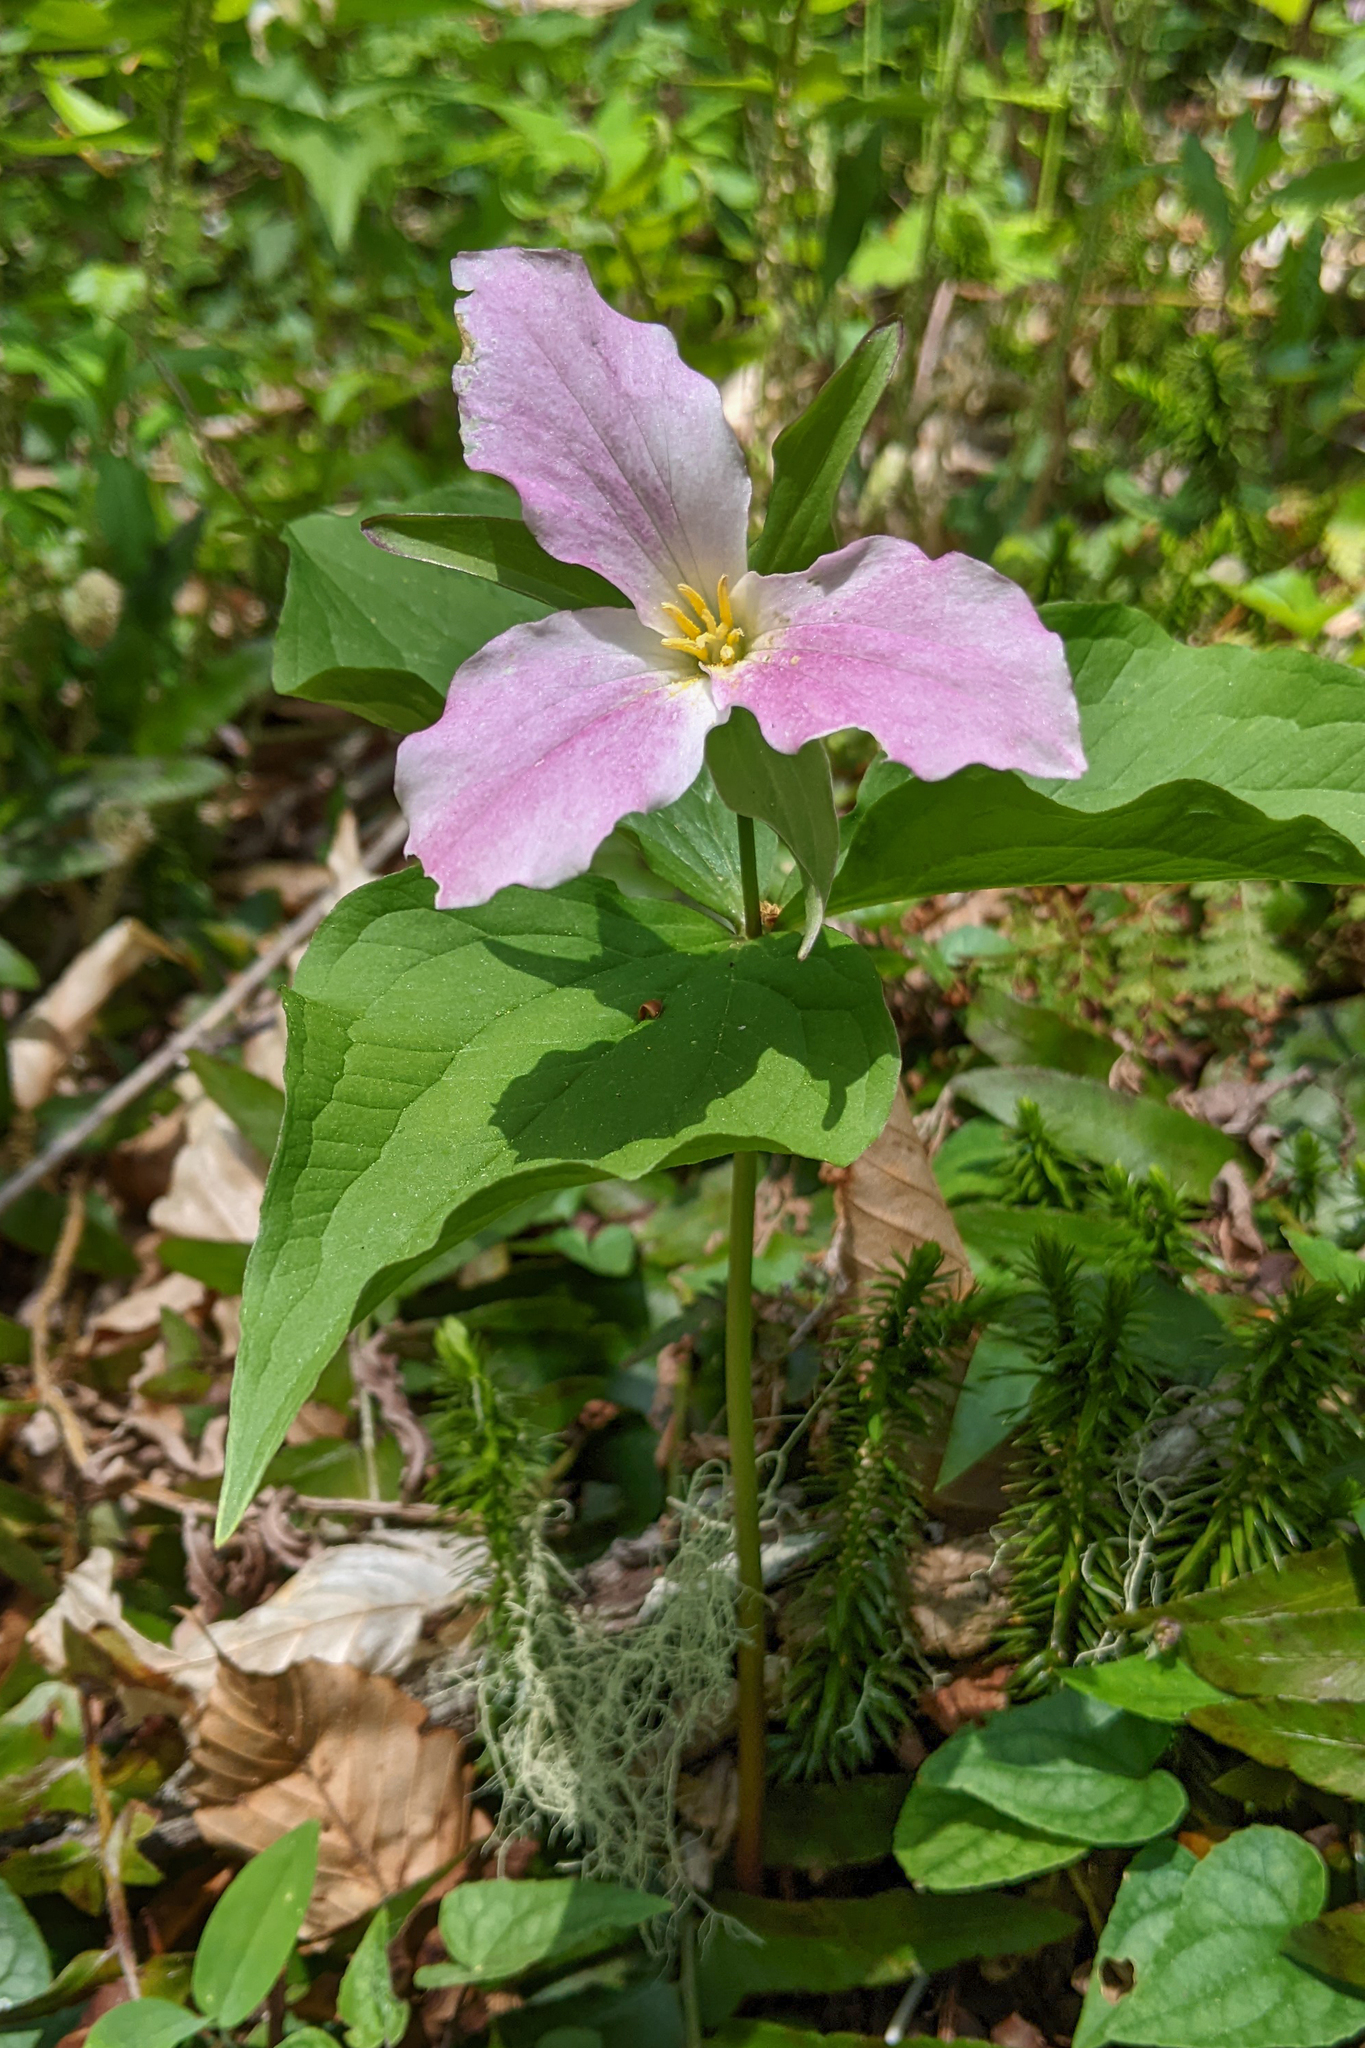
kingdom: Plantae
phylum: Tracheophyta
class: Liliopsida
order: Liliales
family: Melanthiaceae
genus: Trillium
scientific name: Trillium grandiflorum
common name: Great white trillium
